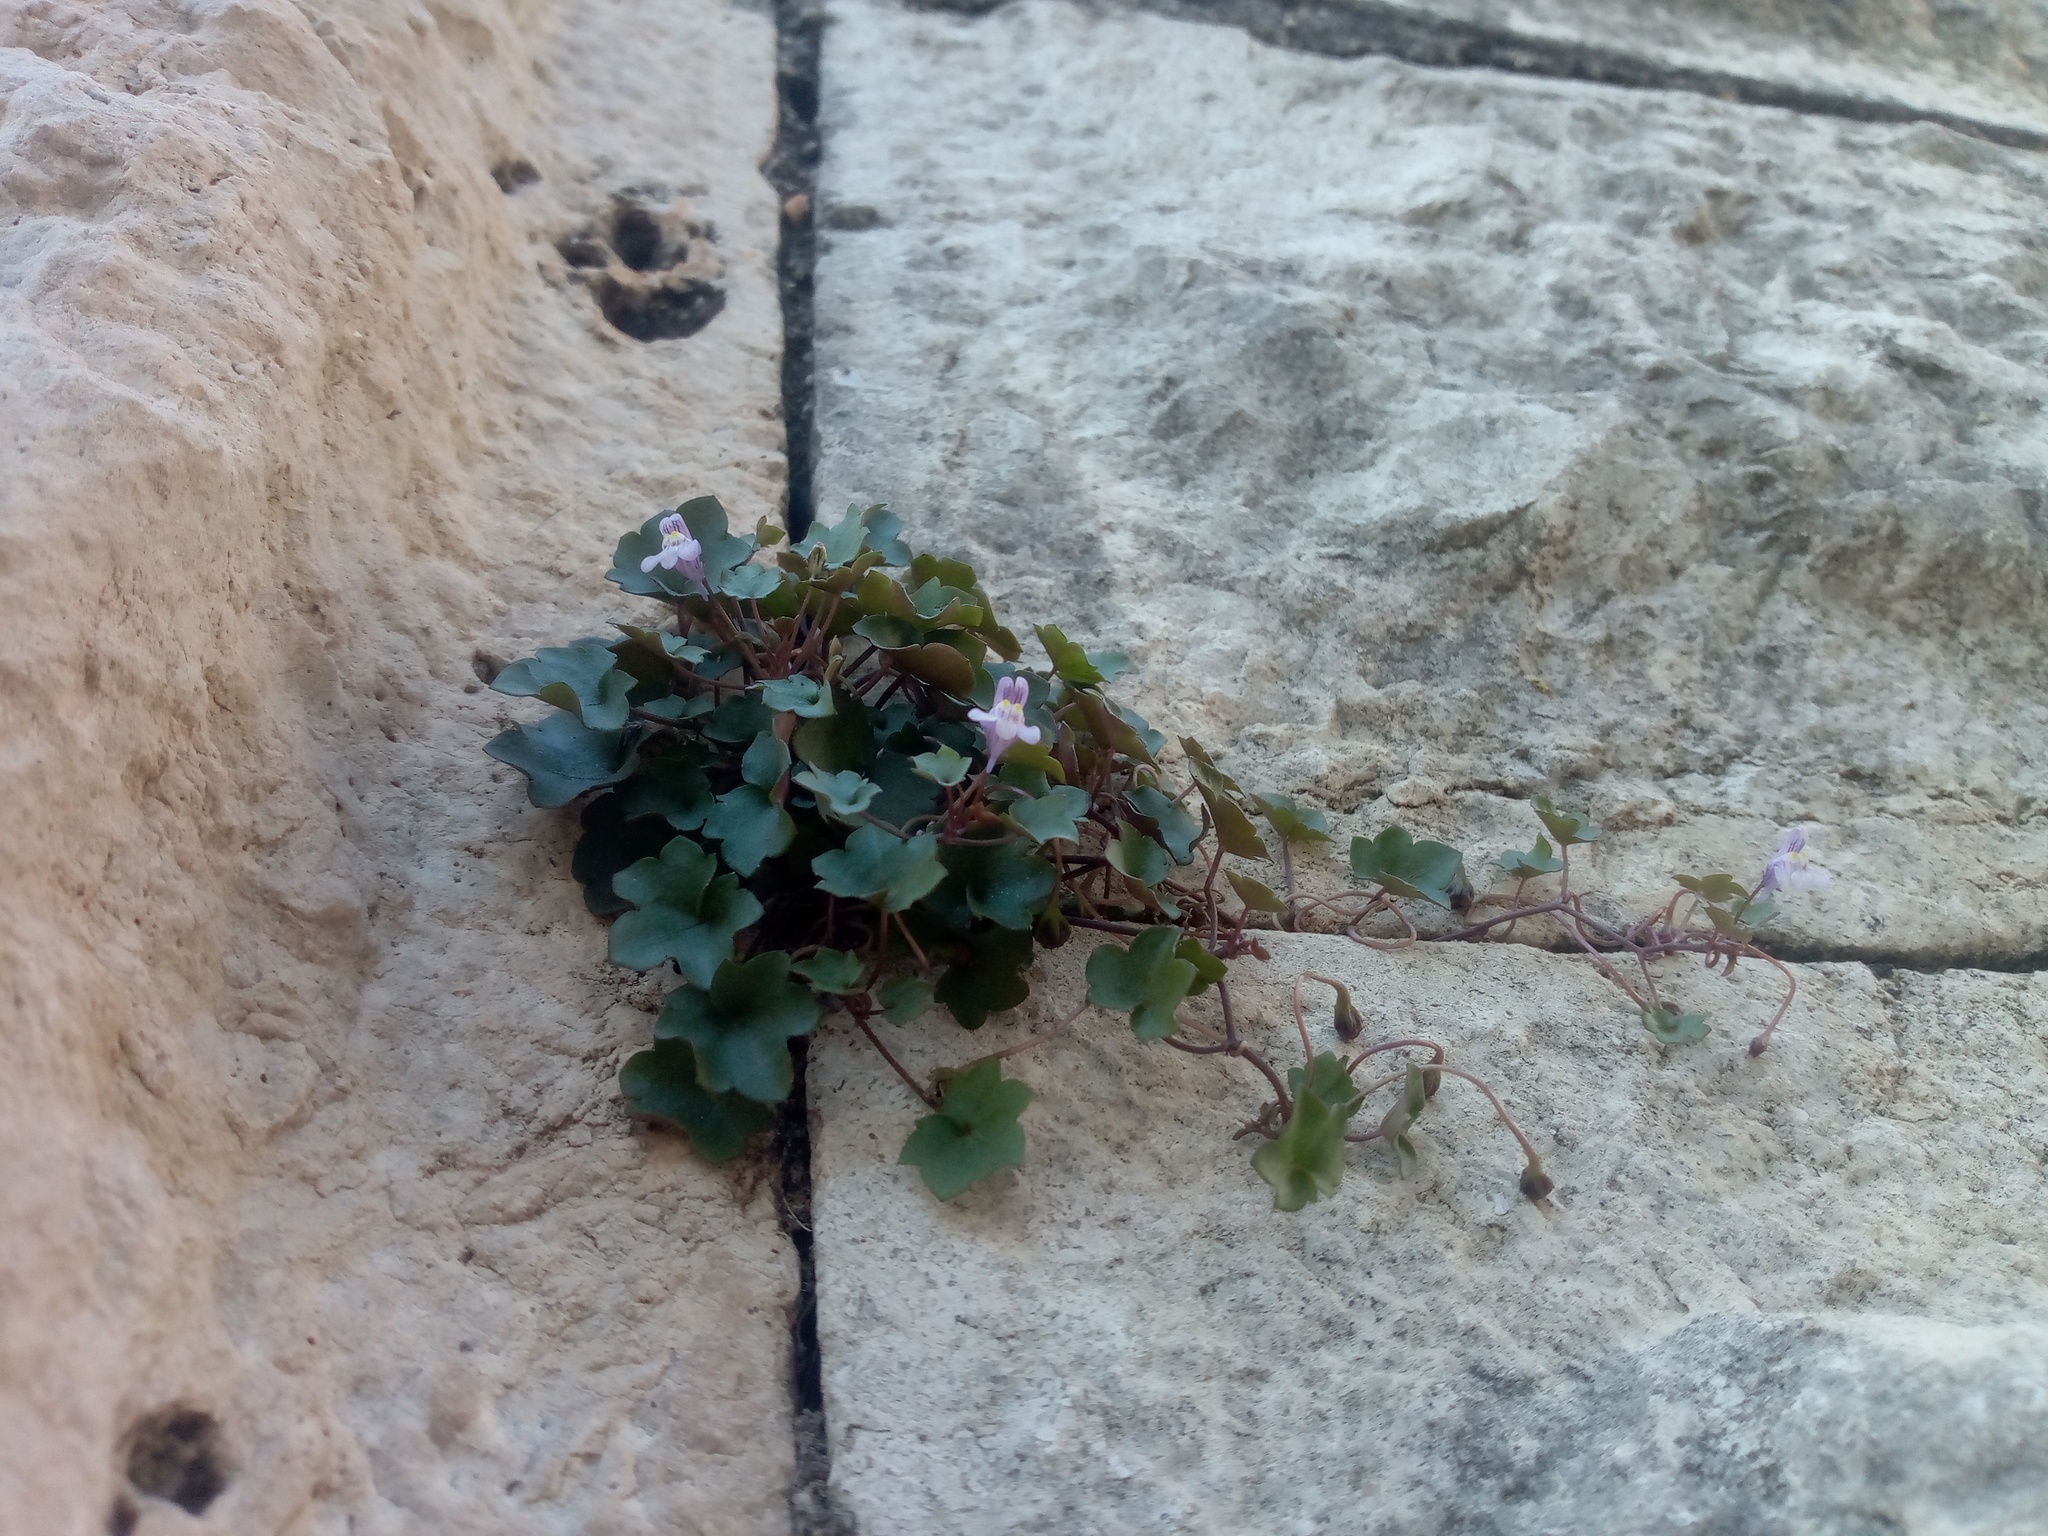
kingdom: Plantae
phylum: Tracheophyta
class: Magnoliopsida
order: Lamiales
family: Plantaginaceae
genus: Cymbalaria
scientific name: Cymbalaria muralis
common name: Ivy-leaved toadflax
